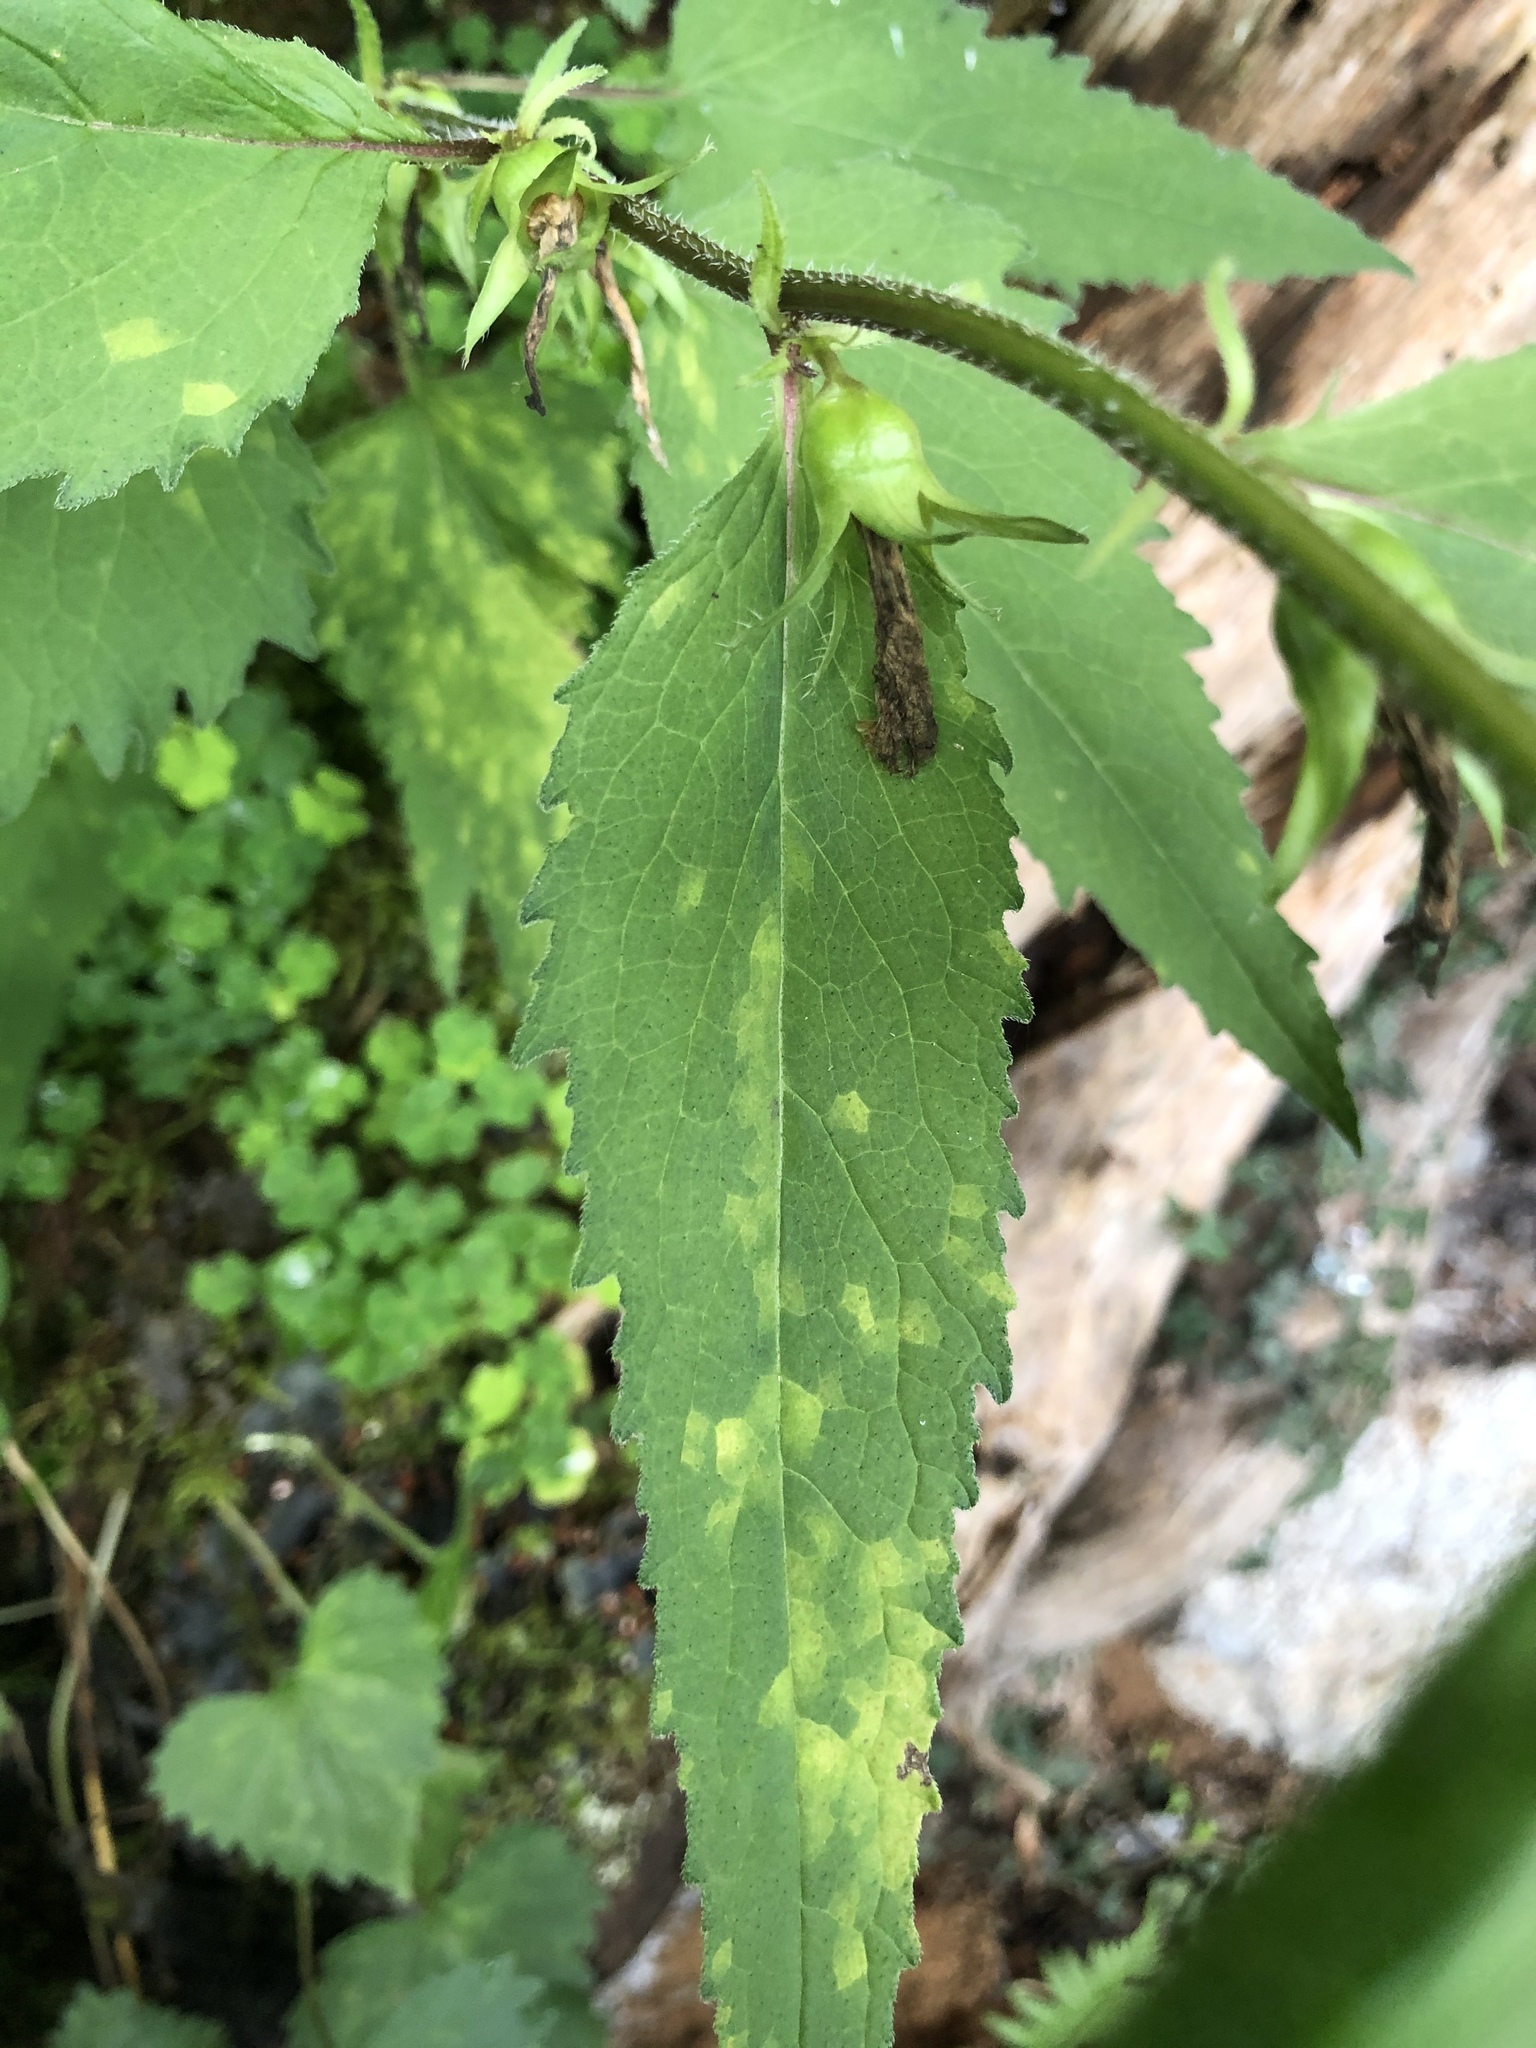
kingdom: Plantae
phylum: Tracheophyta
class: Magnoliopsida
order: Asterales
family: Campanulaceae
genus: Campanula
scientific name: Campanula trachelium
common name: Nettle-leaved bellflower
